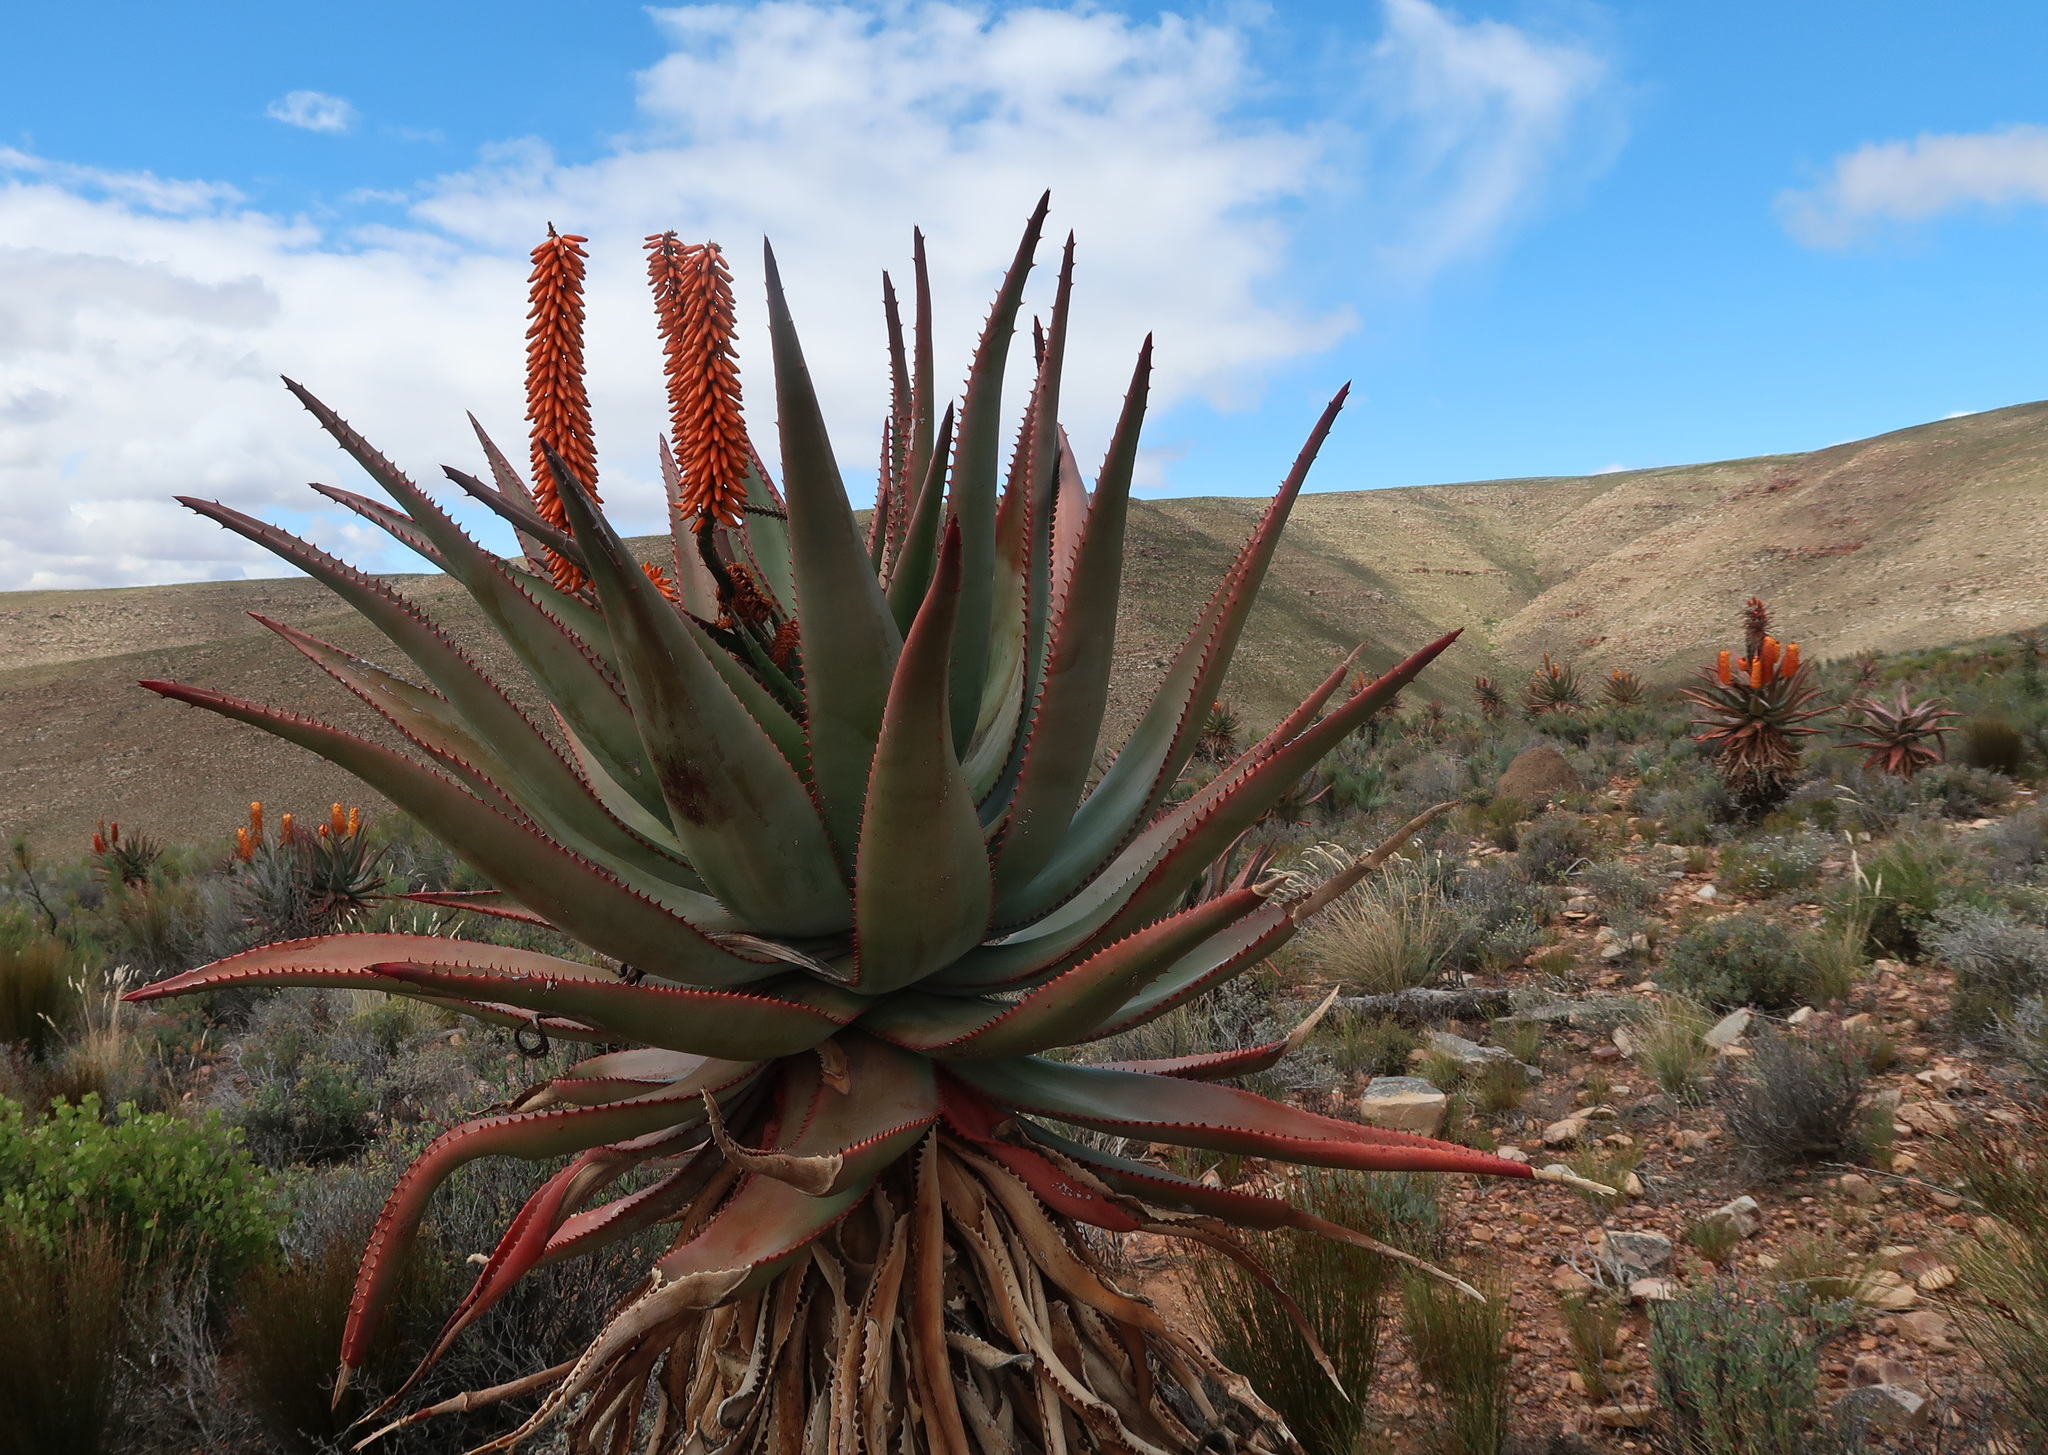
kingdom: Plantae
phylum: Tracheophyta
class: Liliopsida
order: Asparagales
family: Asphodelaceae
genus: Aloe
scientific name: Aloe ferox
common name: Bitter aloe
